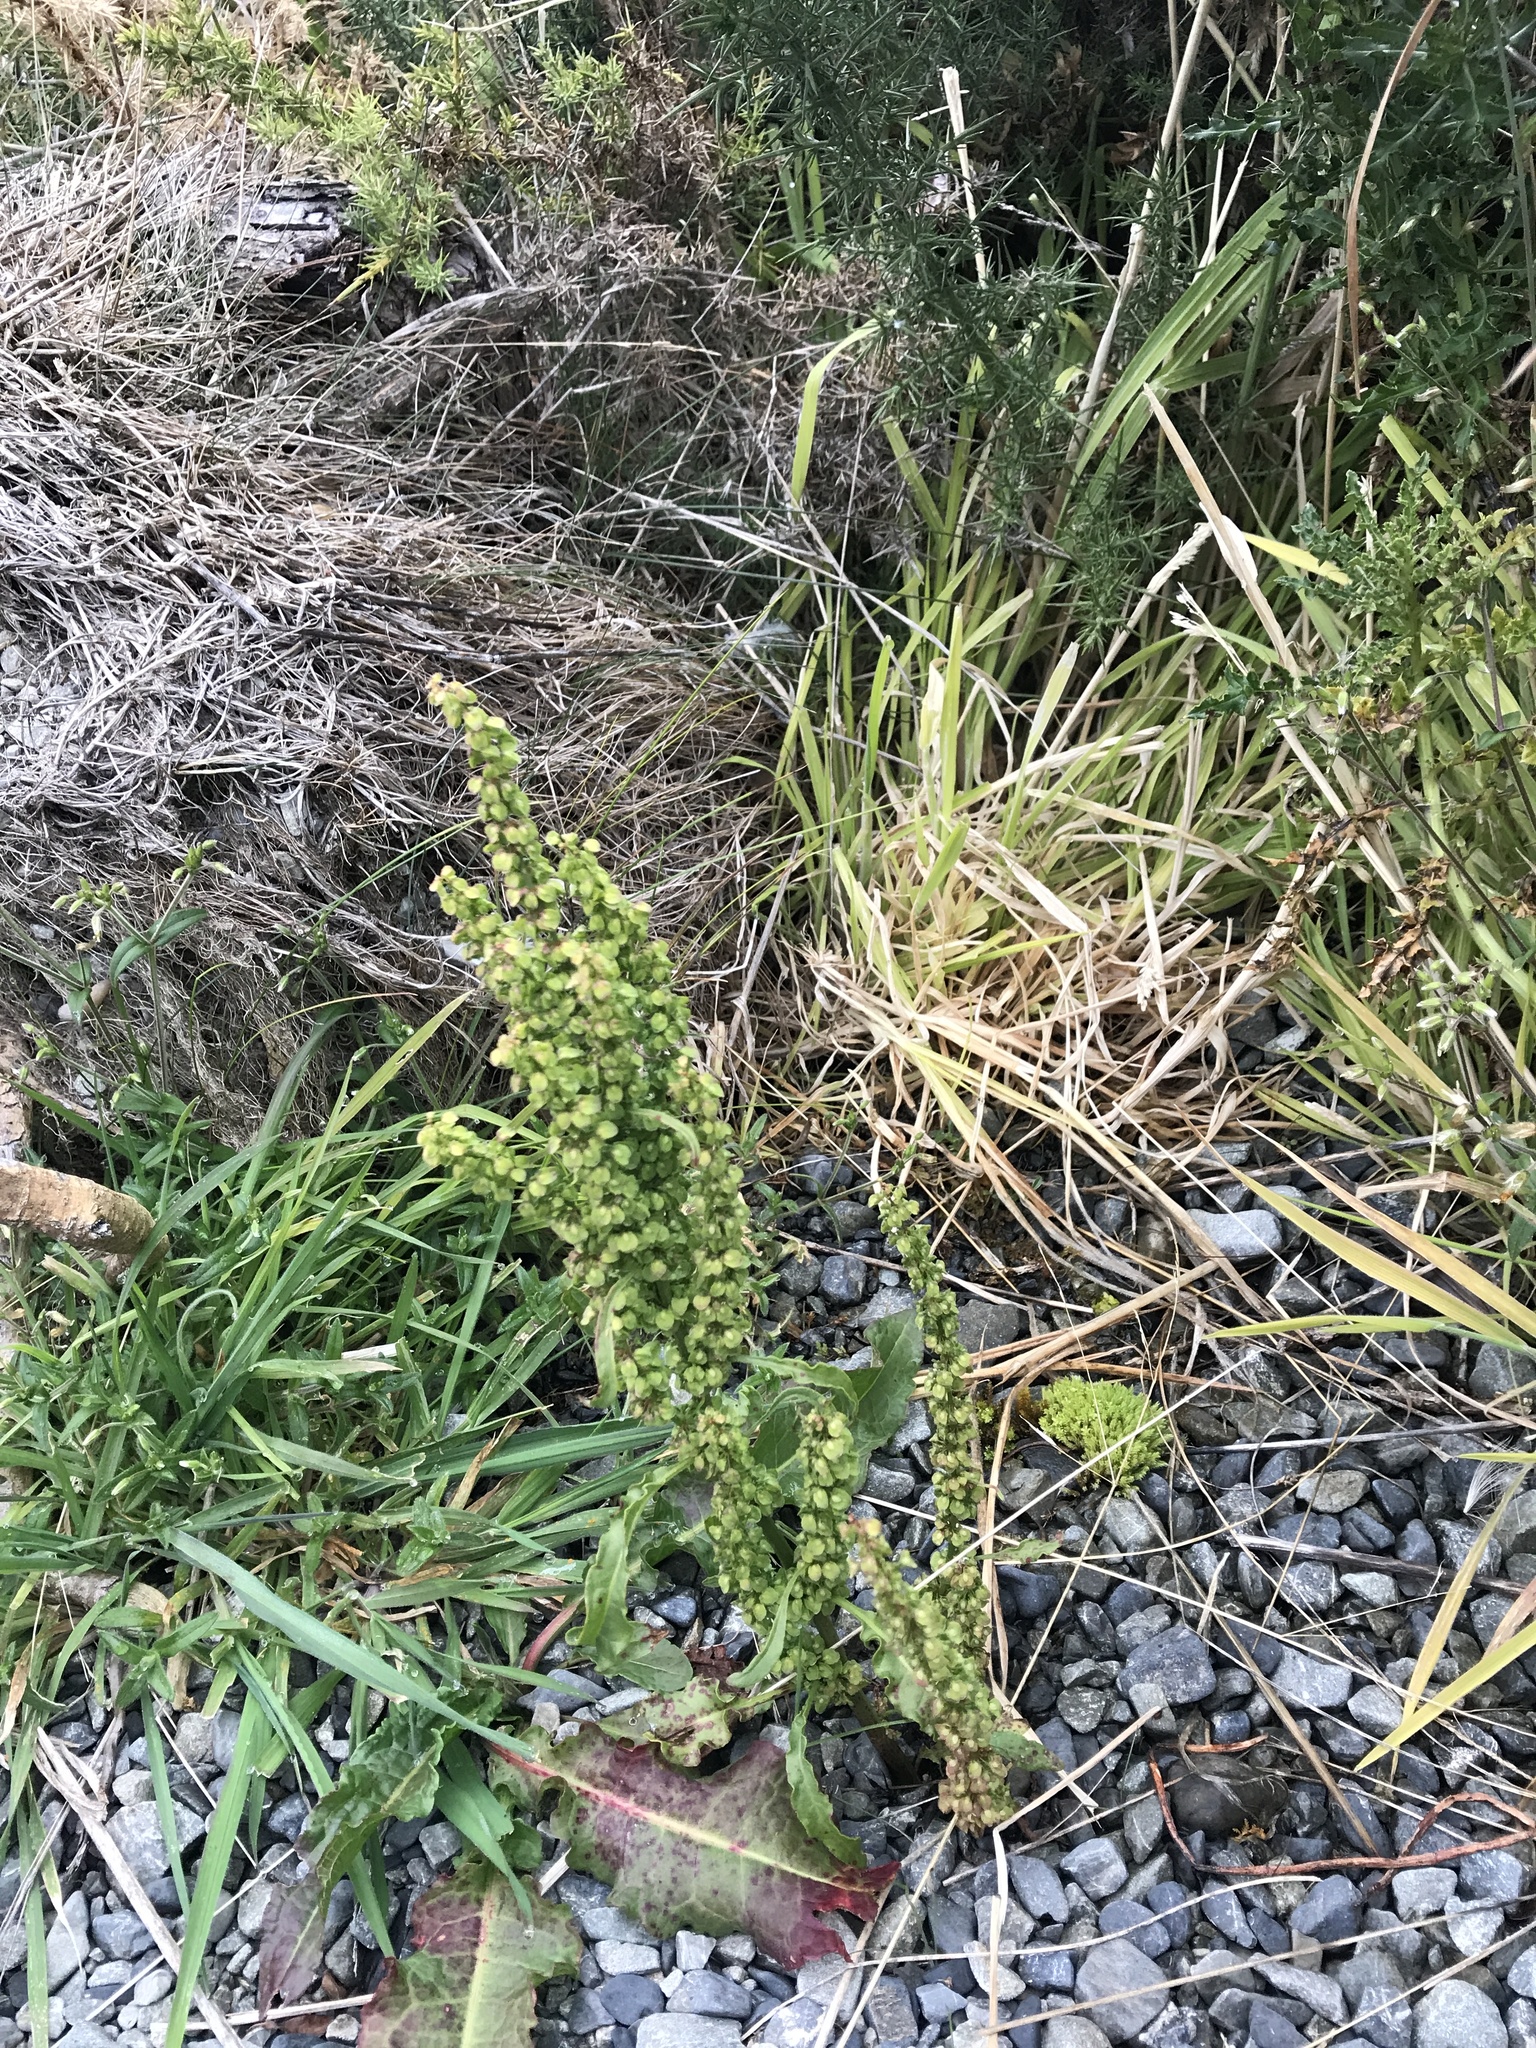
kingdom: Plantae
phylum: Tracheophyta
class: Magnoliopsida
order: Caryophyllales
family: Polygonaceae
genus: Rumex
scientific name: Rumex crispus
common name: Curled dock
